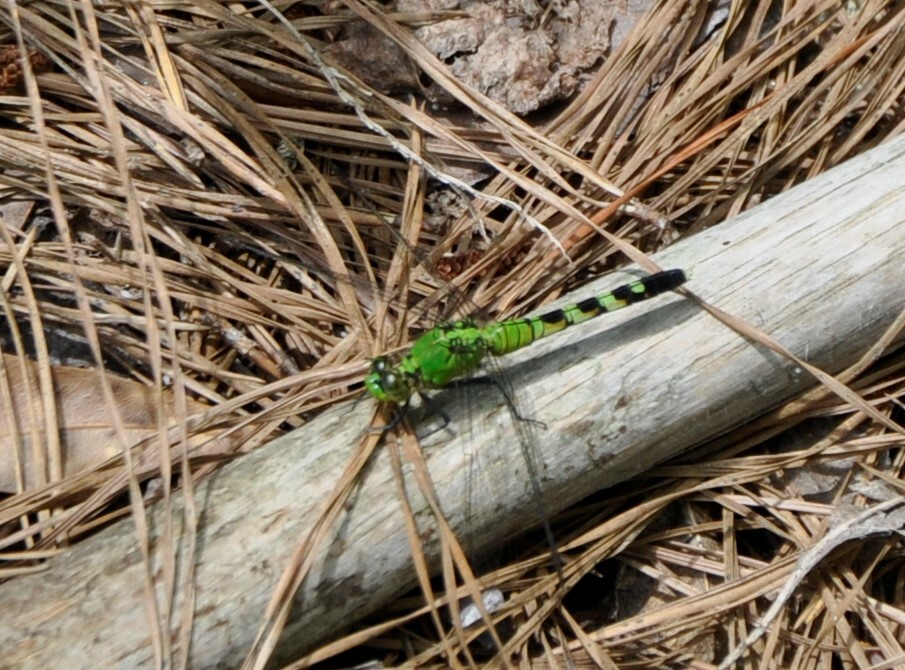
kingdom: Animalia
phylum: Arthropoda
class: Insecta
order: Odonata
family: Libellulidae
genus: Erythemis
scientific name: Erythemis simplicicollis
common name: Eastern pondhawk
